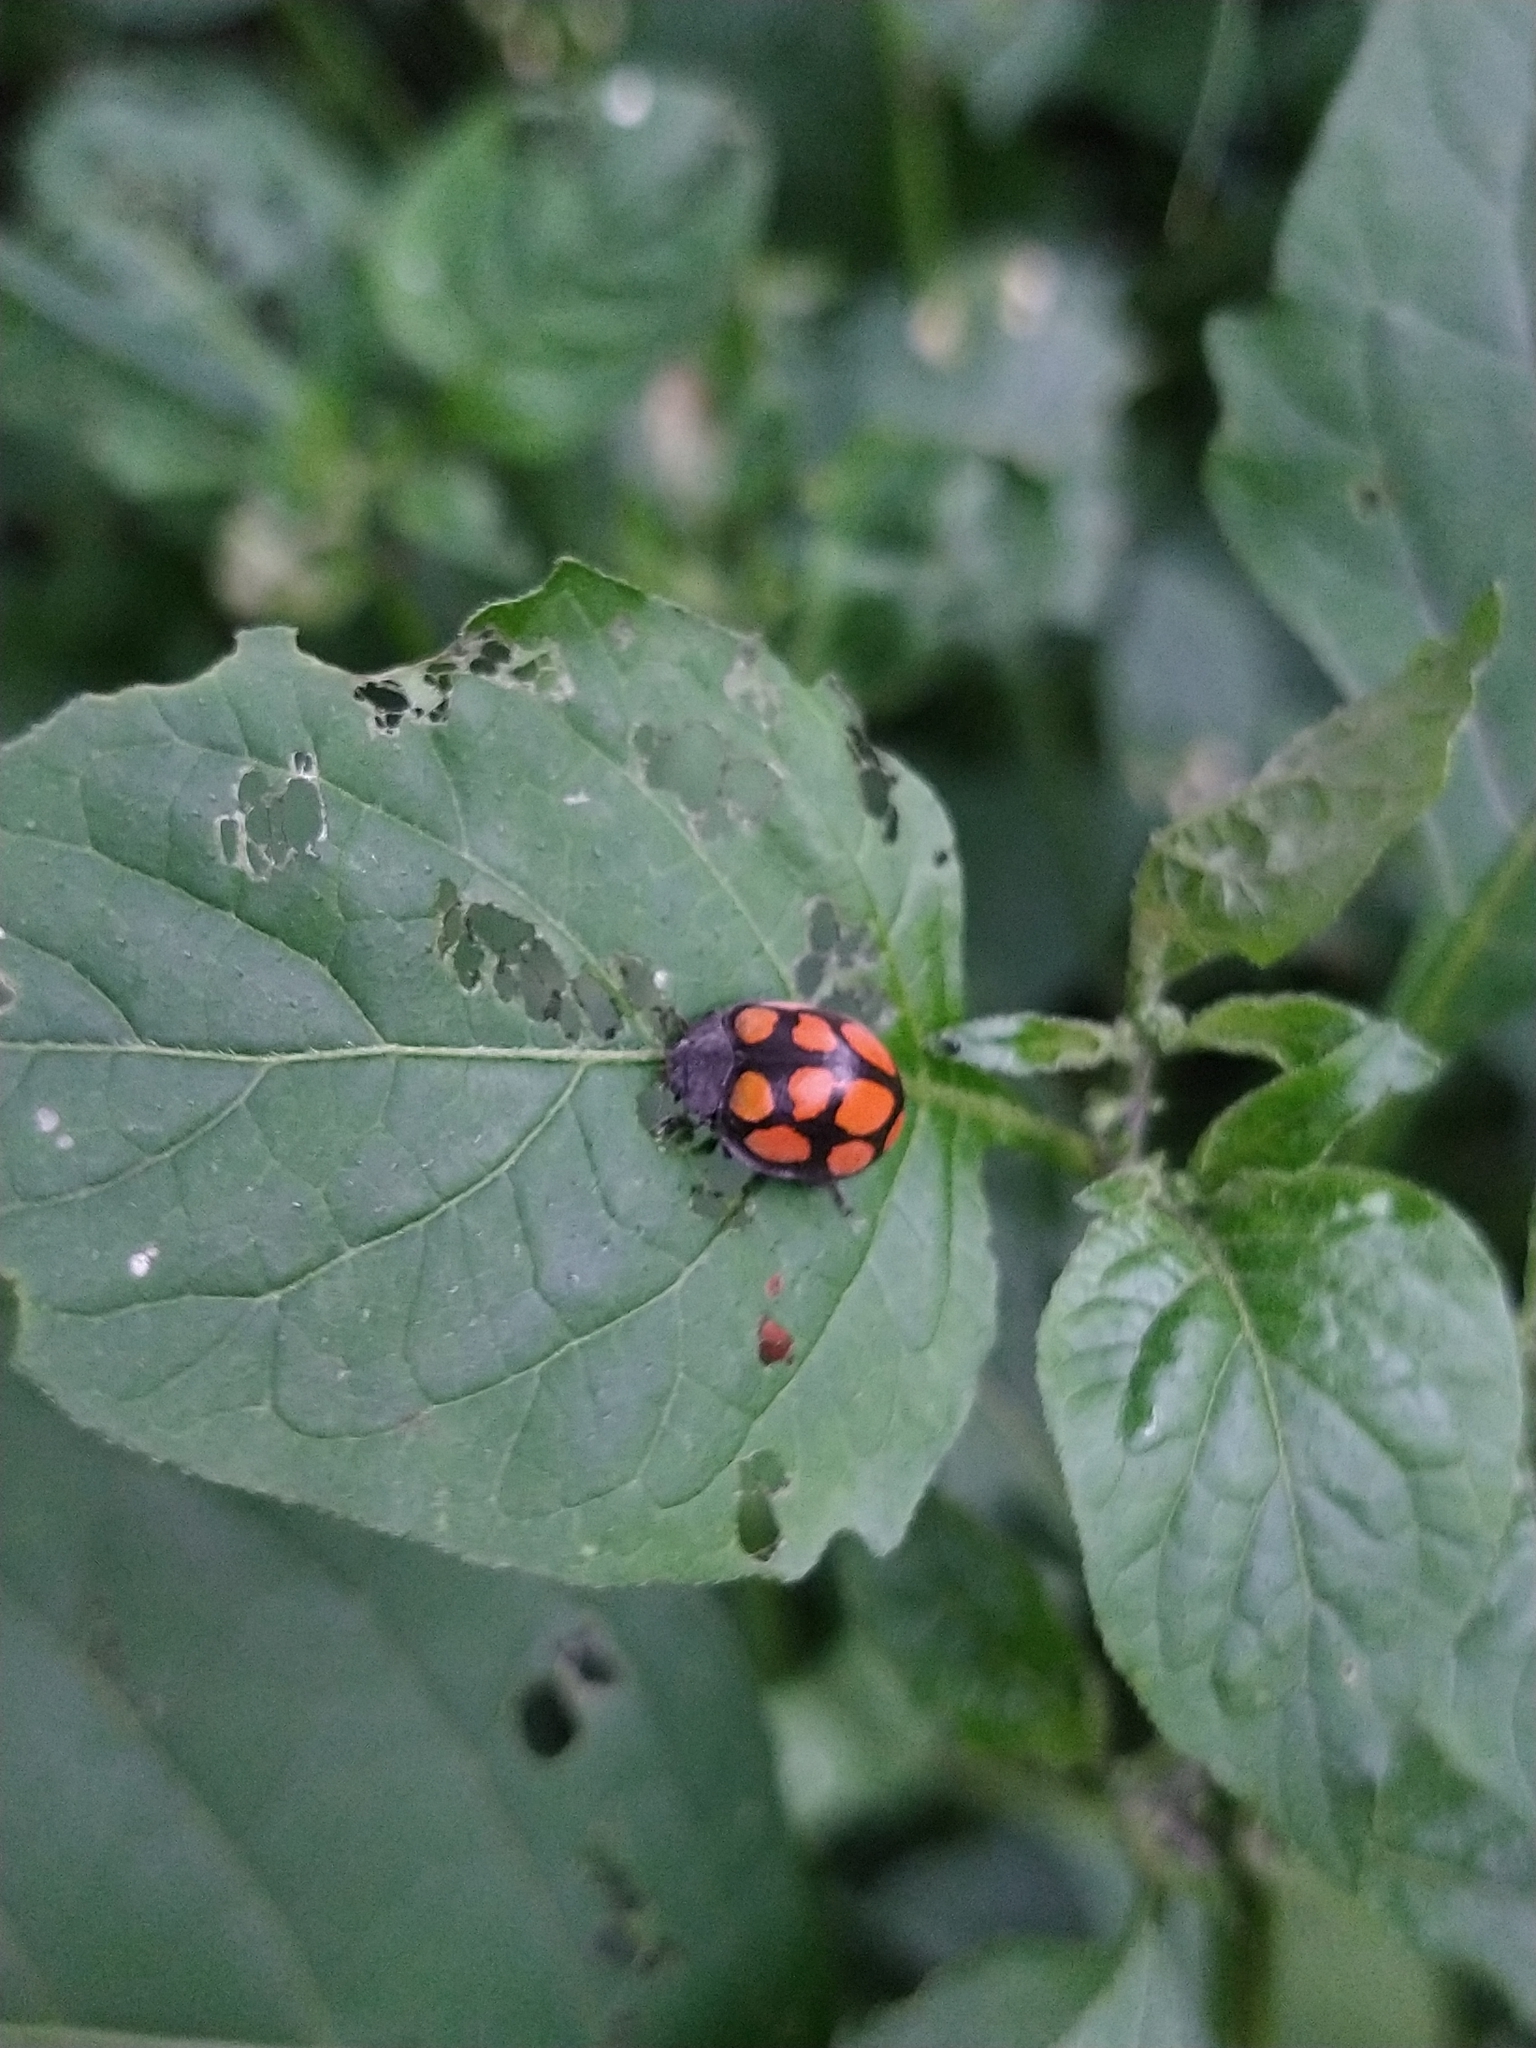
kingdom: Animalia
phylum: Arthropoda
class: Insecta
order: Coleoptera
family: Coccinellidae
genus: Epilachna
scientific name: Epilachna
